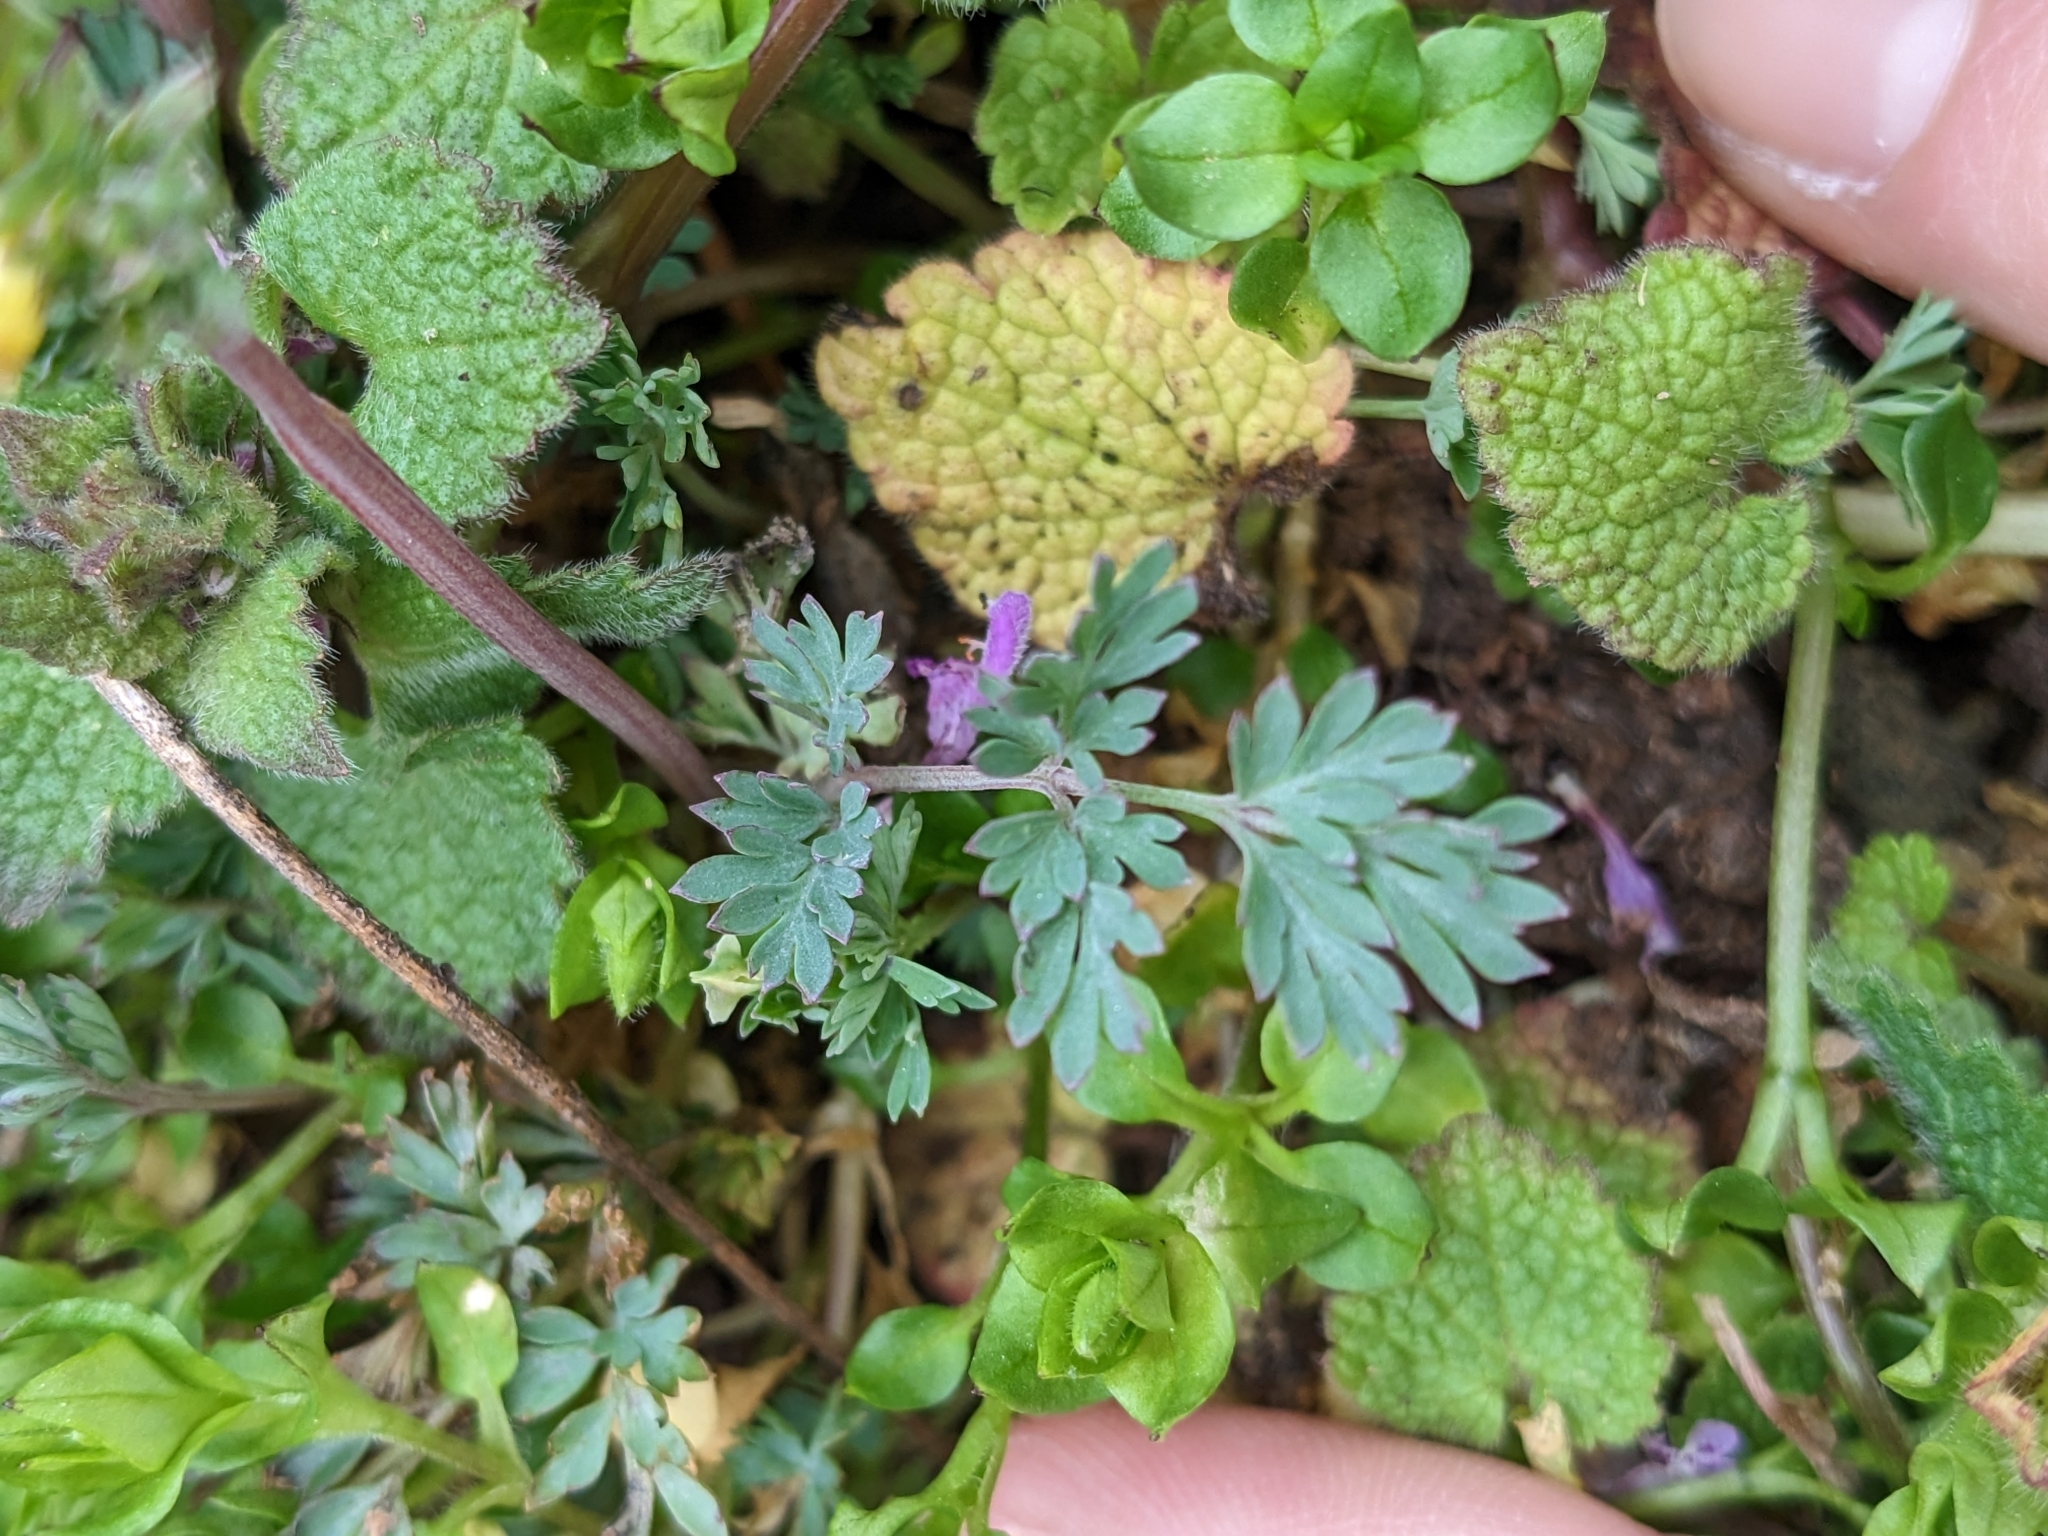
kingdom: Plantae
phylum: Tracheophyta
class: Magnoliopsida
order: Ranunculales
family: Papaveraceae
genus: Corydalis
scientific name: Corydalis flavula
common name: Yellow corydalis
